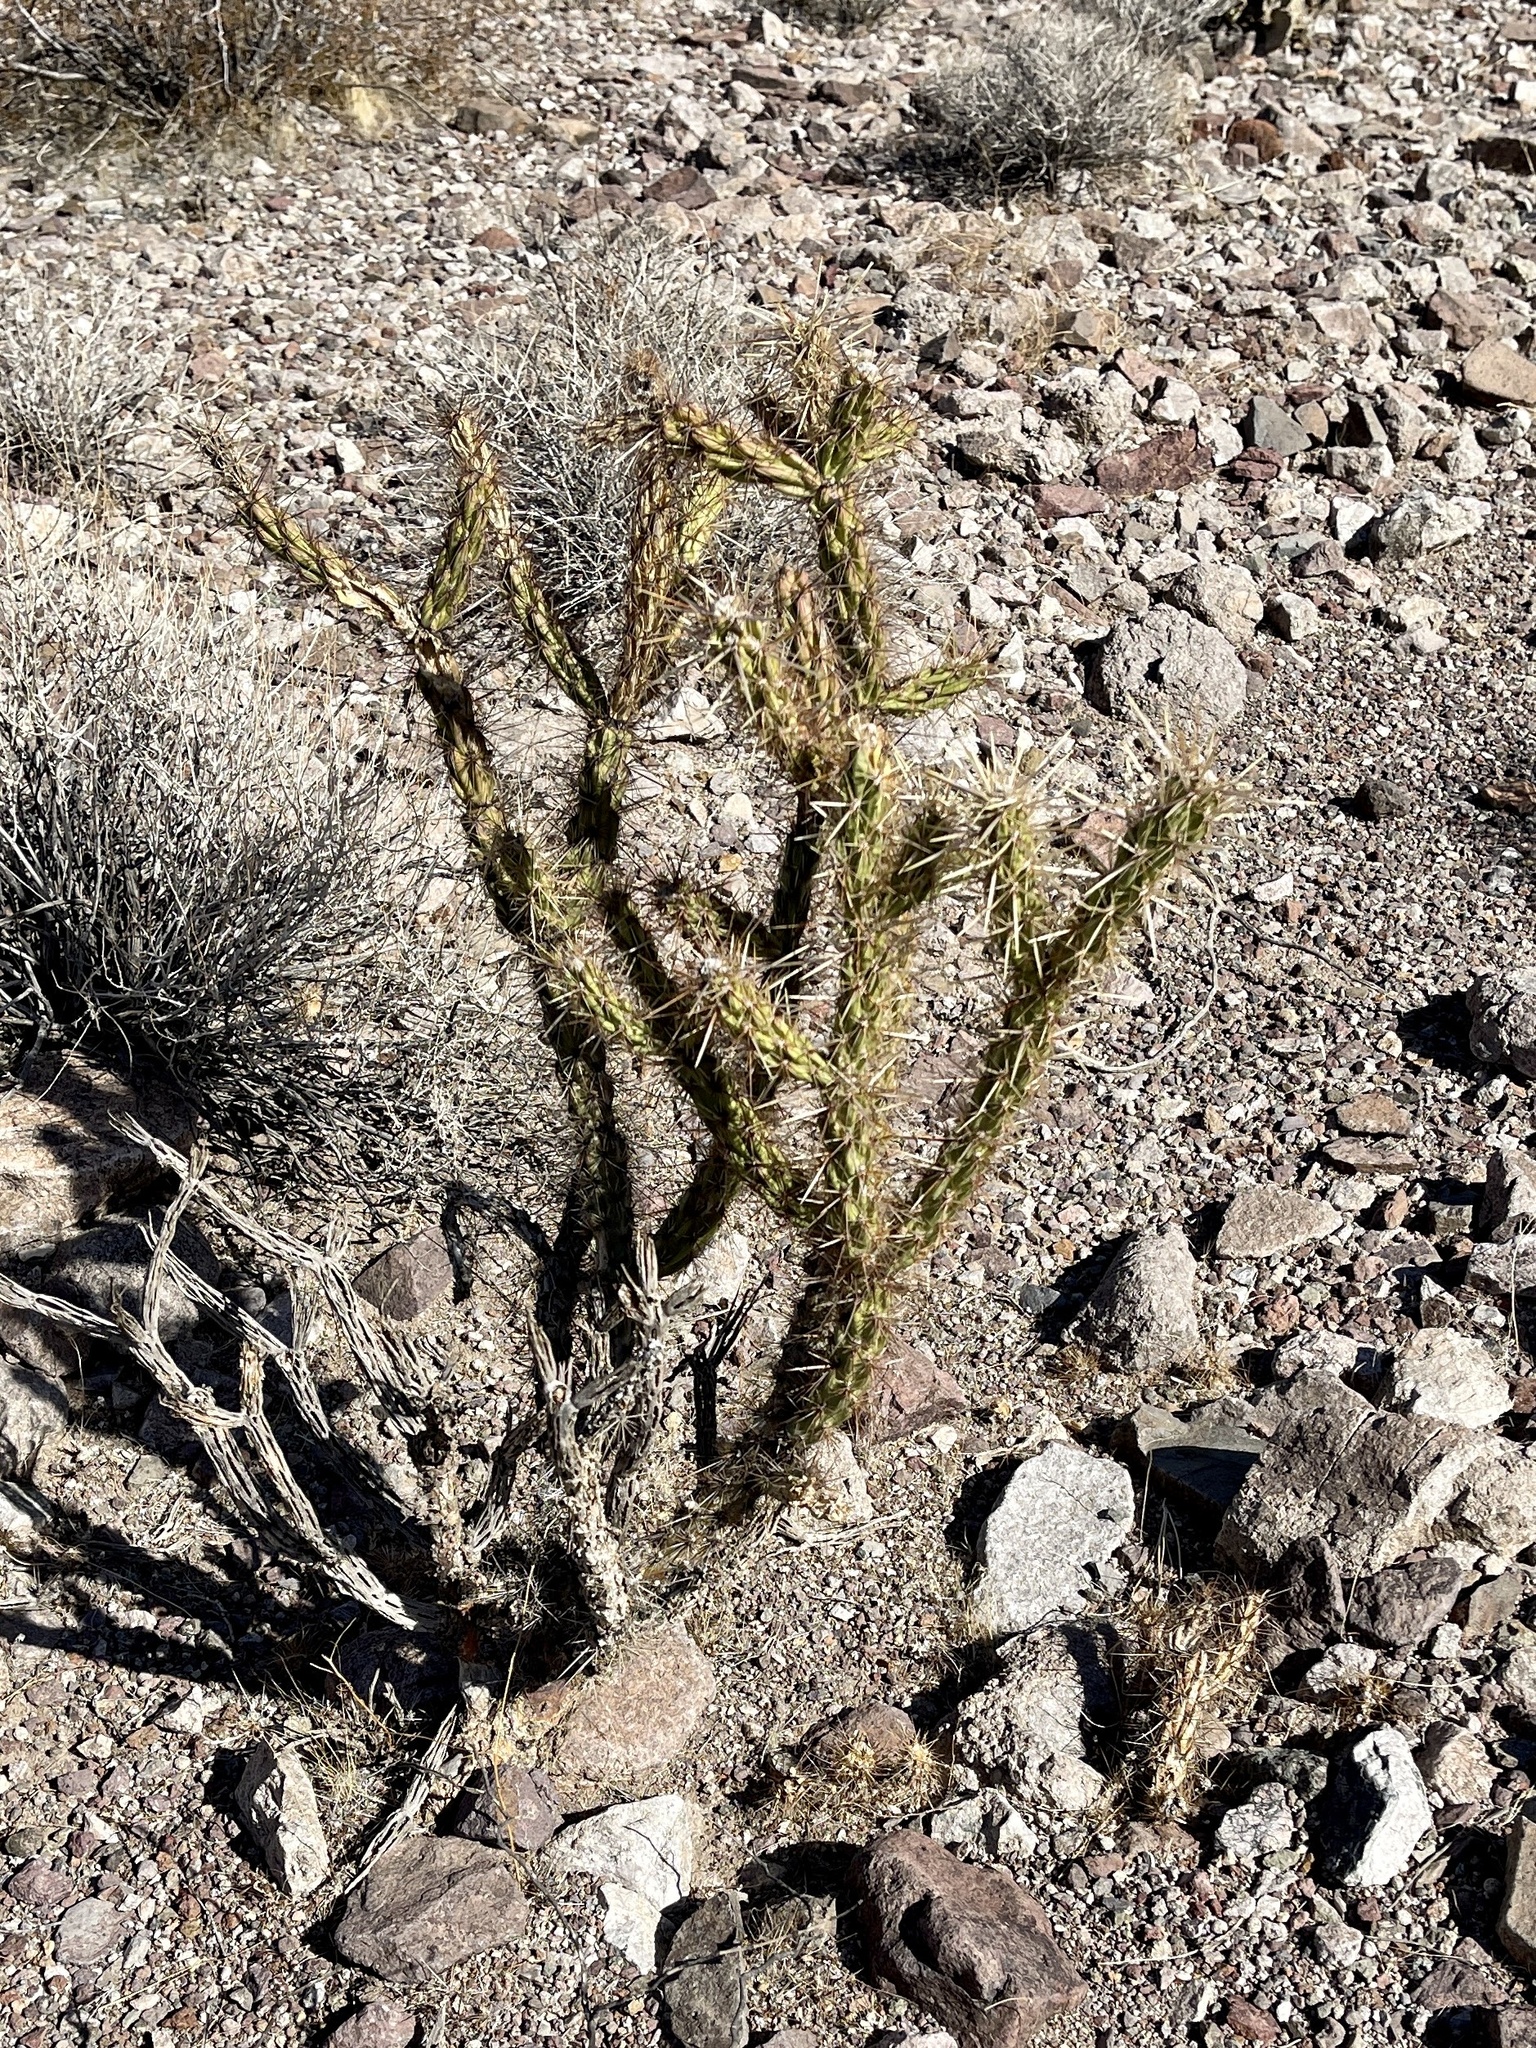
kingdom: Plantae
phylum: Tracheophyta
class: Magnoliopsida
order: Caryophyllales
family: Cactaceae
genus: Cylindropuntia
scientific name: Cylindropuntia acanthocarpa
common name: Buckhorn cholla
